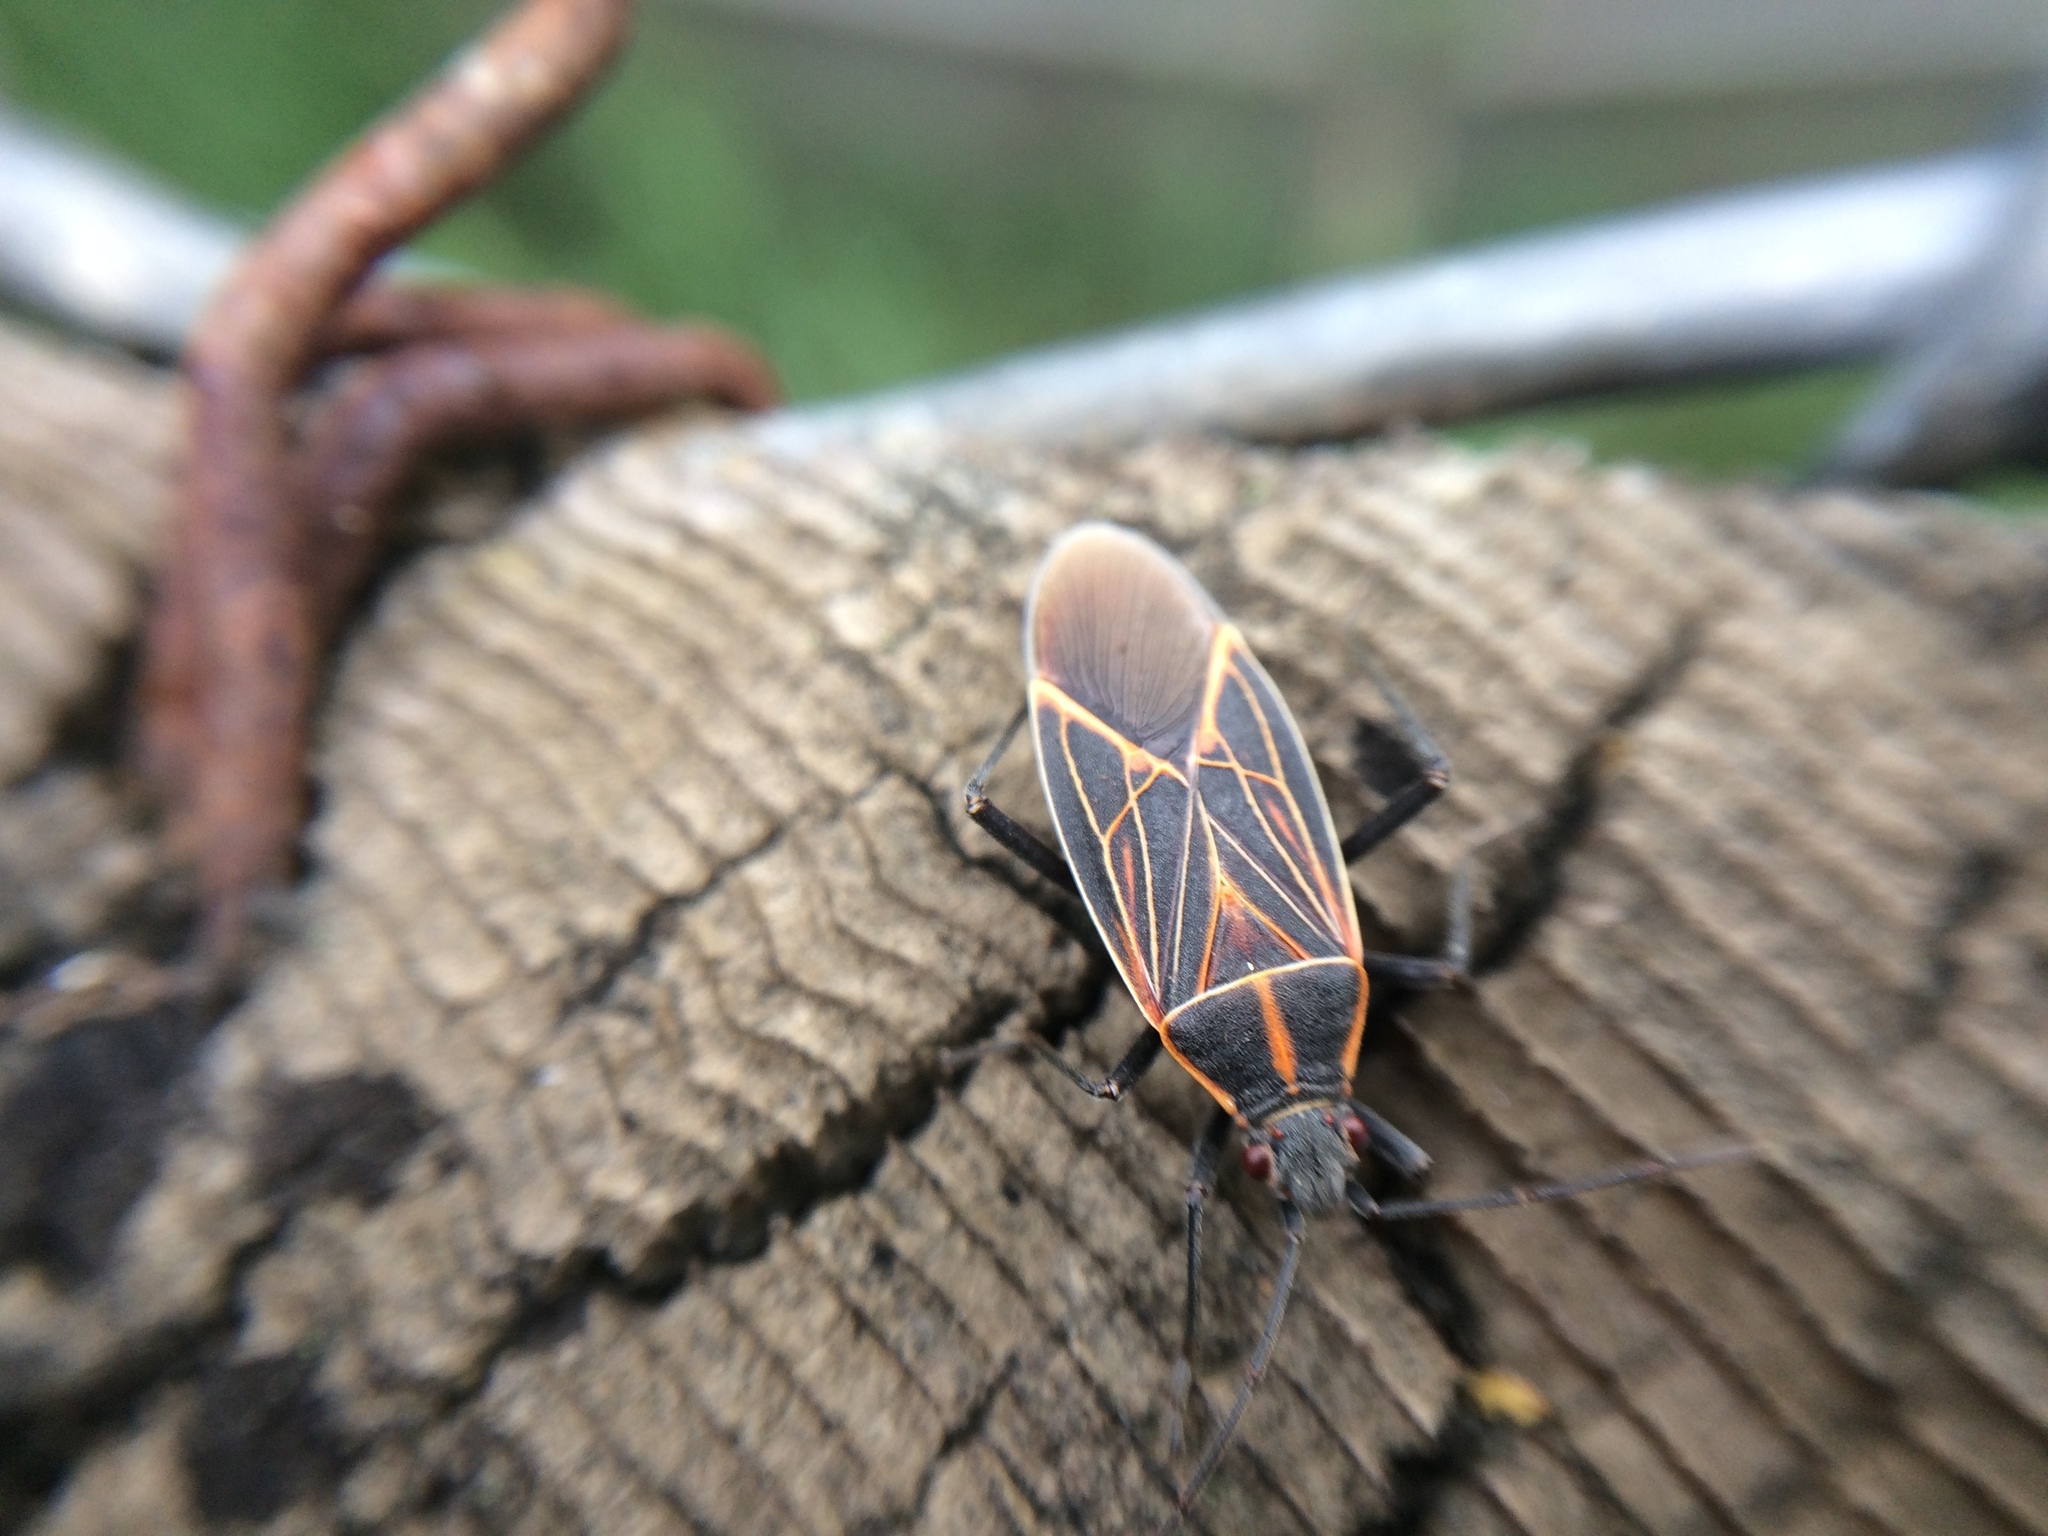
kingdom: Animalia
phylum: Arthropoda
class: Insecta
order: Hemiptera
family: Rhopalidae
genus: Boisea
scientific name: Boisea rubrolineata
